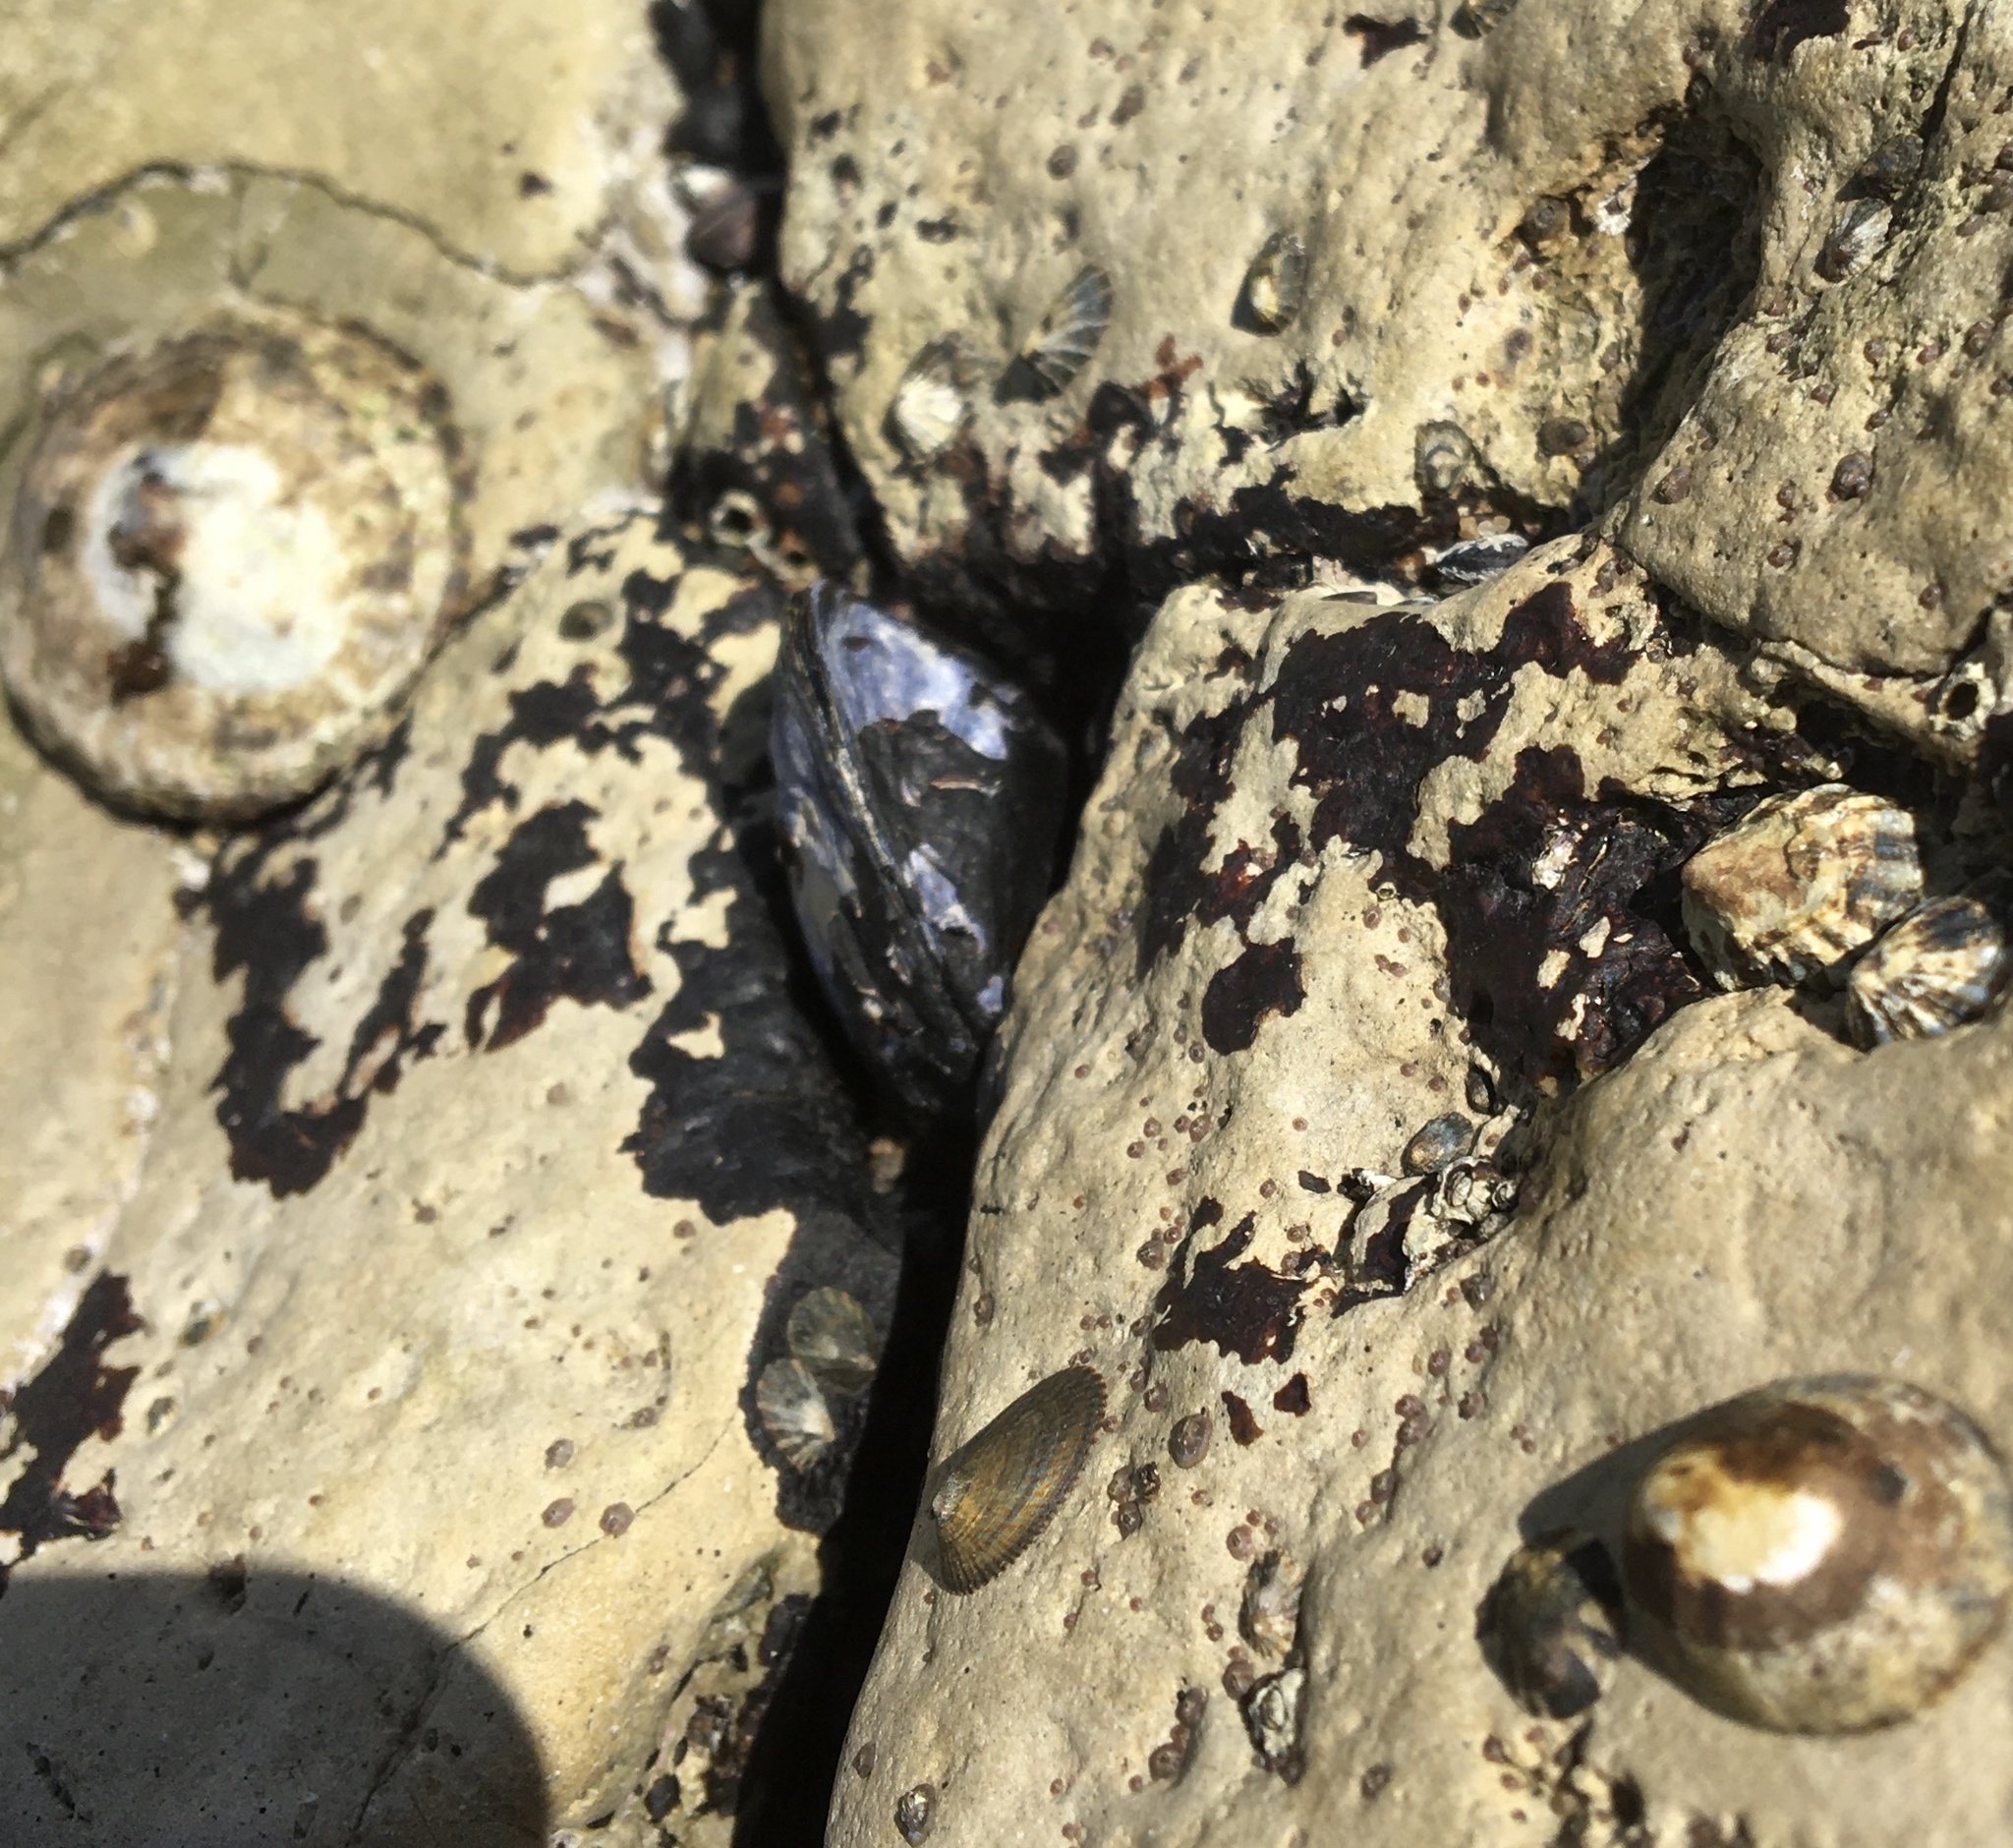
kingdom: Animalia
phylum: Mollusca
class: Bivalvia
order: Mytilida
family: Mytilidae
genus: Mytilus
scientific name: Mytilus californianus
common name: California mussel
